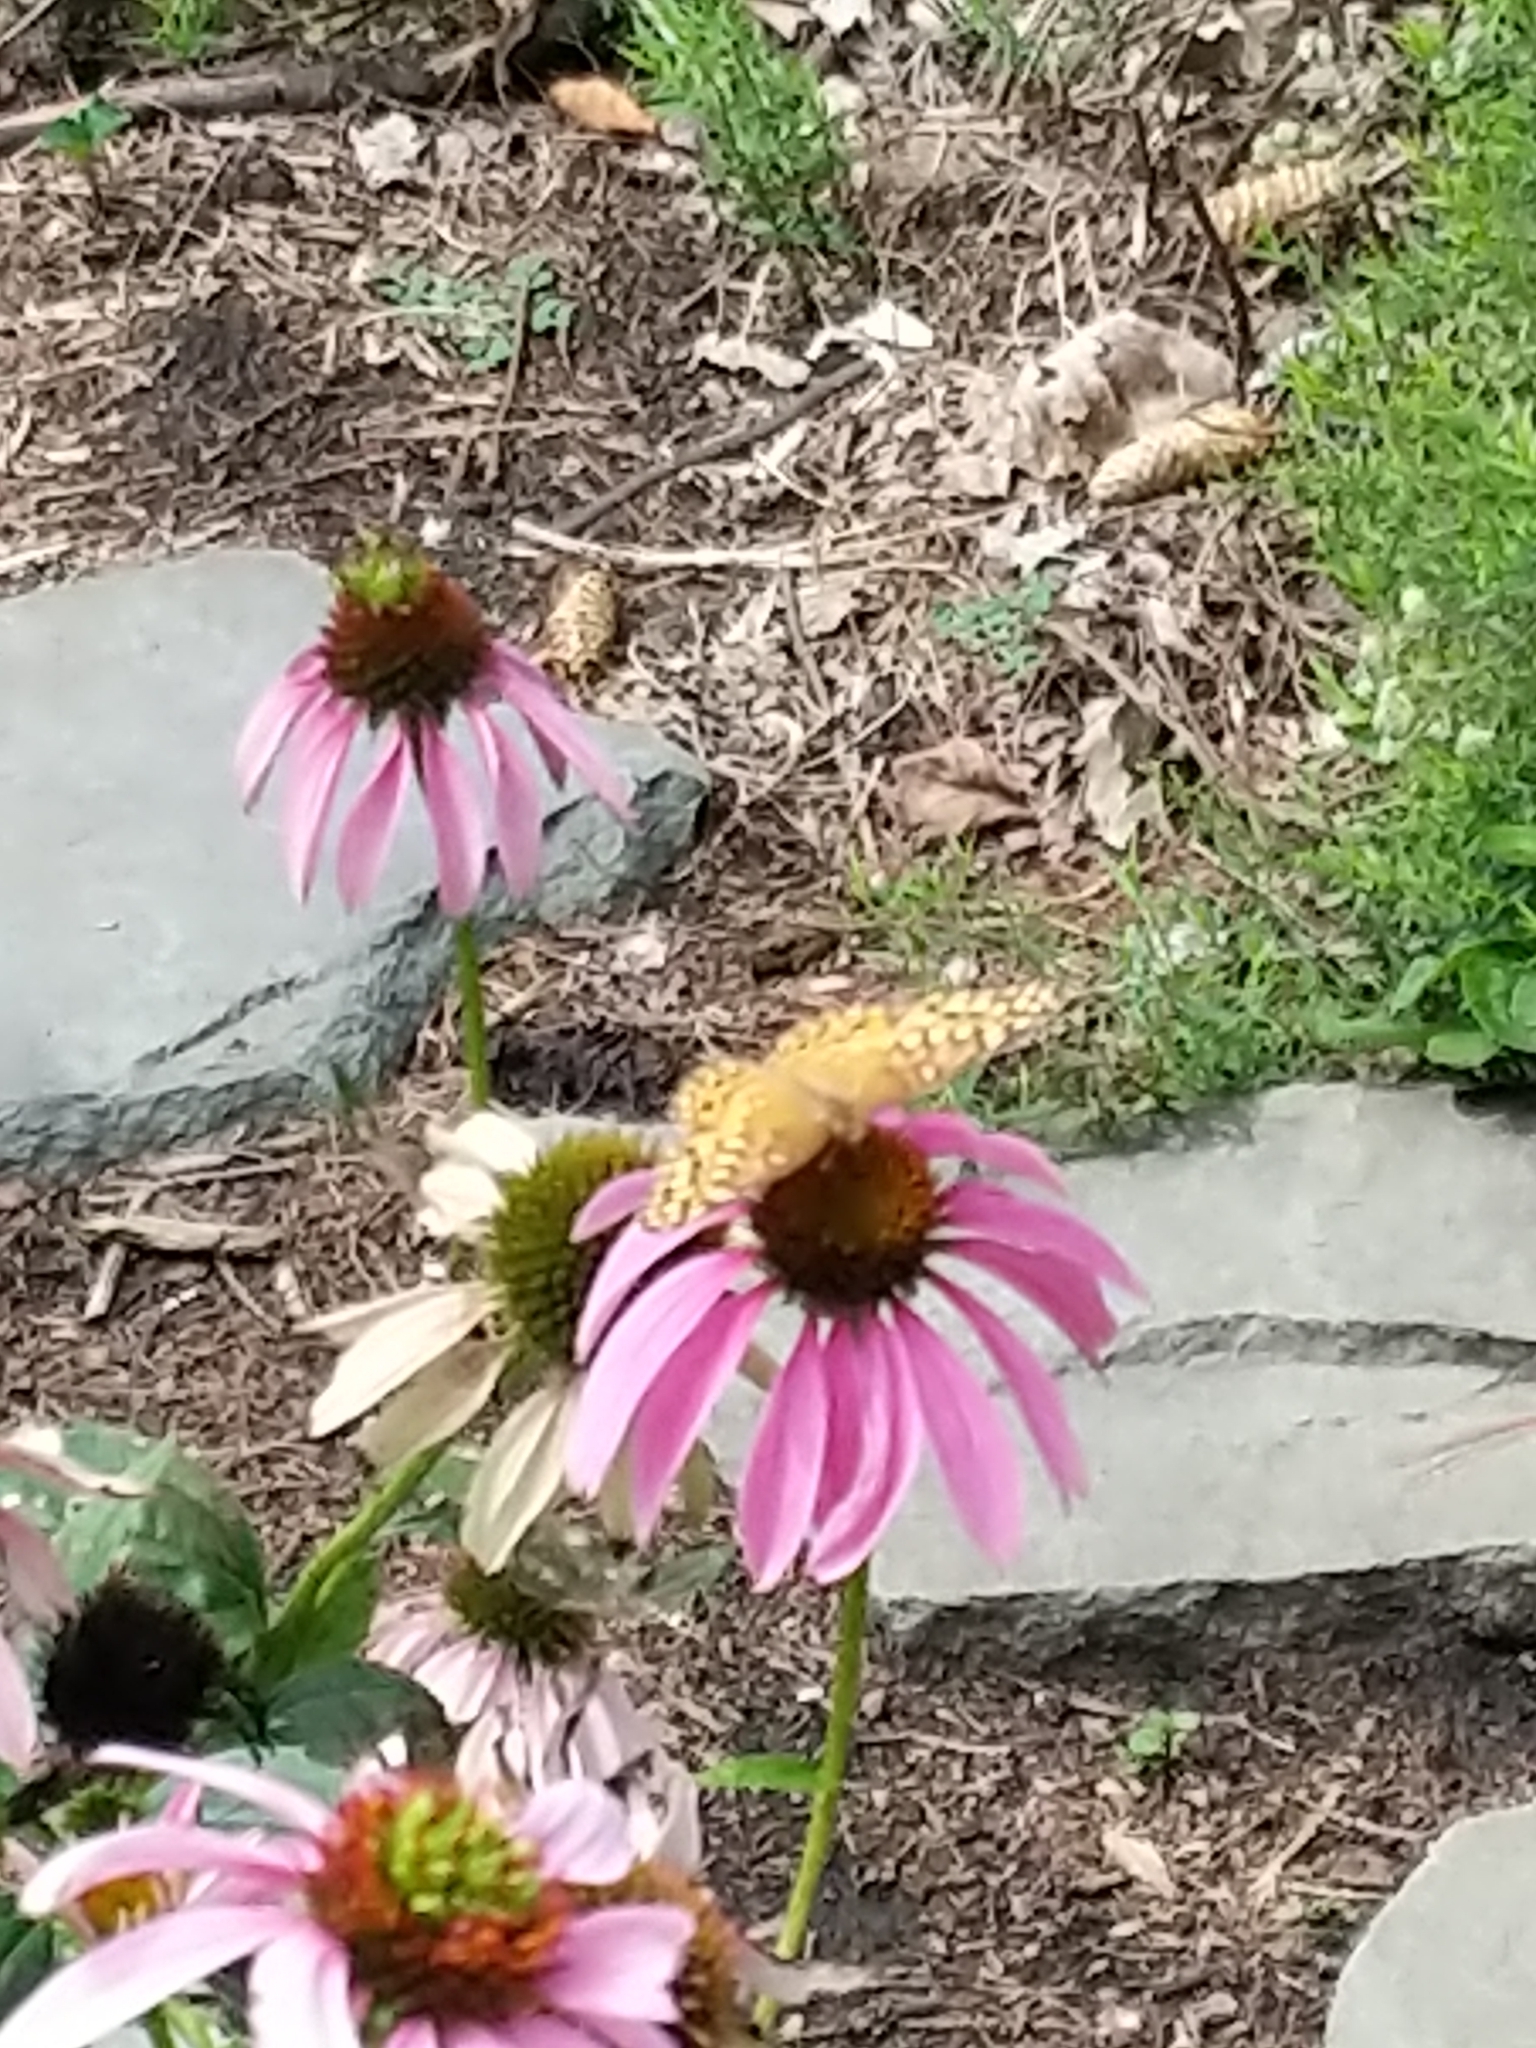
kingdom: Animalia
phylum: Arthropoda
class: Insecta
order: Lepidoptera
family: Nymphalidae
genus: Euptoieta
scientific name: Euptoieta claudia
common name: Variegated fritillary
